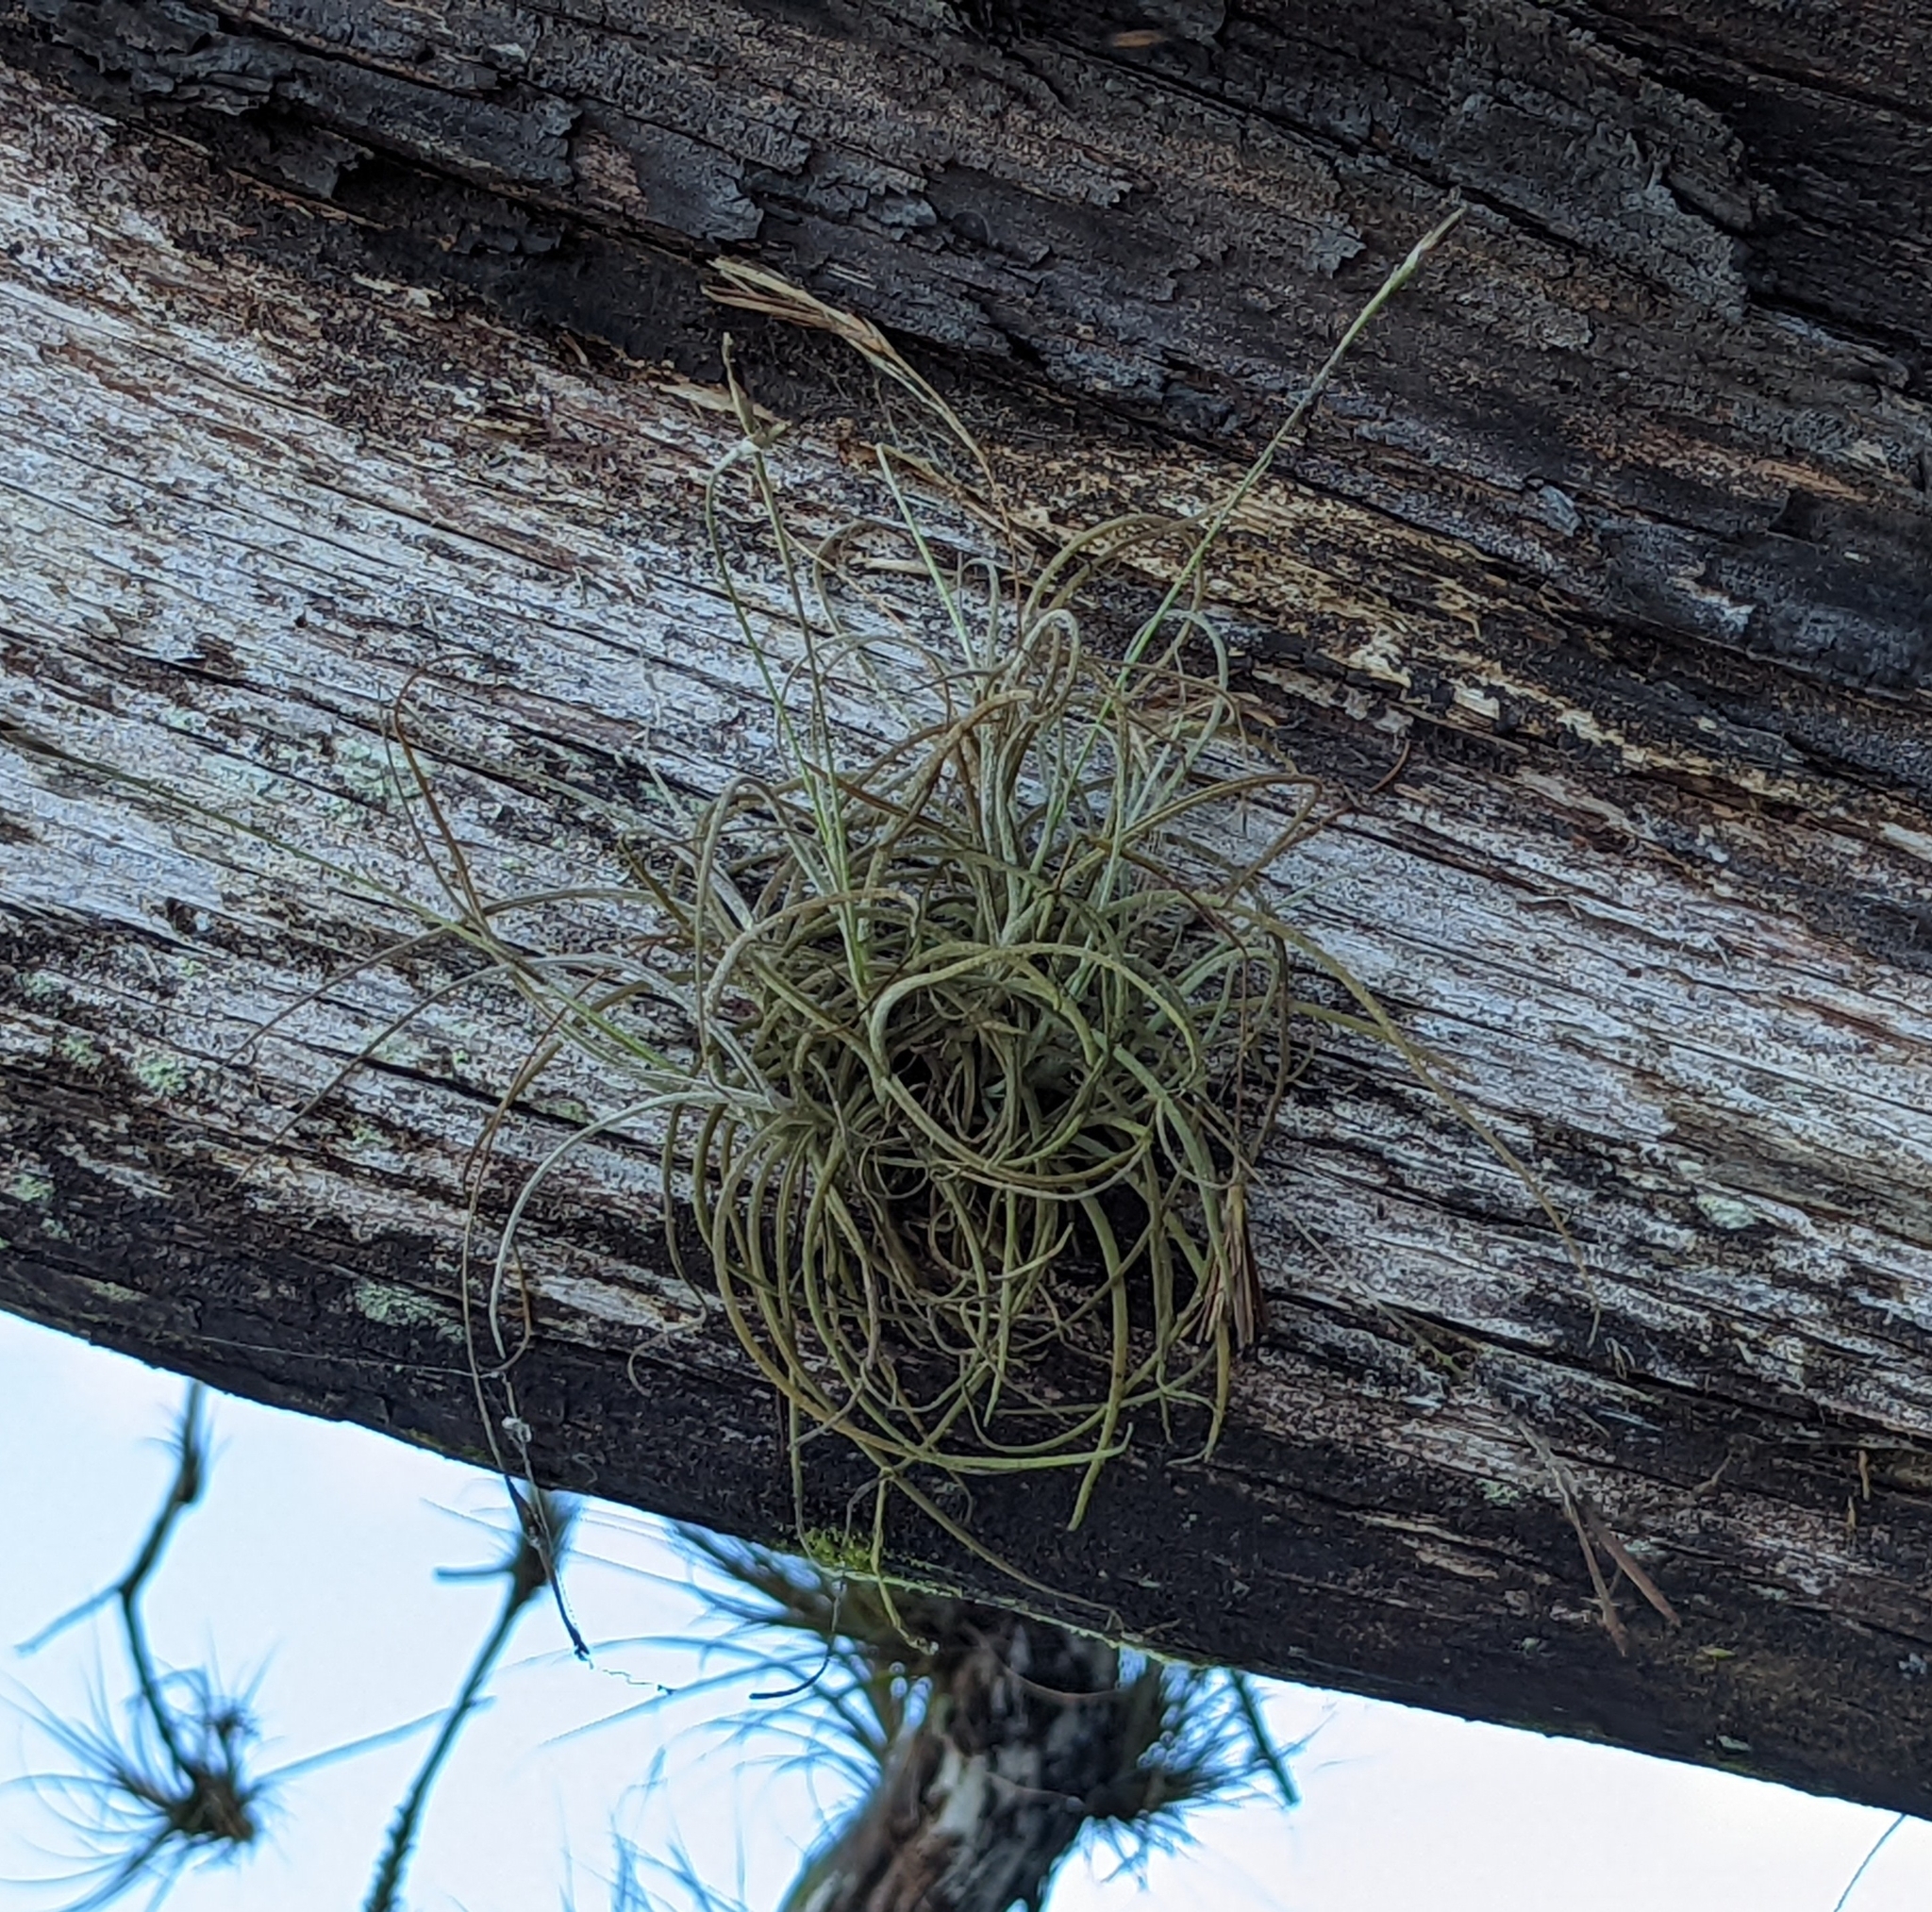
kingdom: Plantae
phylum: Tracheophyta
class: Liliopsida
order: Poales
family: Bromeliaceae
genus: Tillandsia
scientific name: Tillandsia recurvata
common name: Small ballmoss
